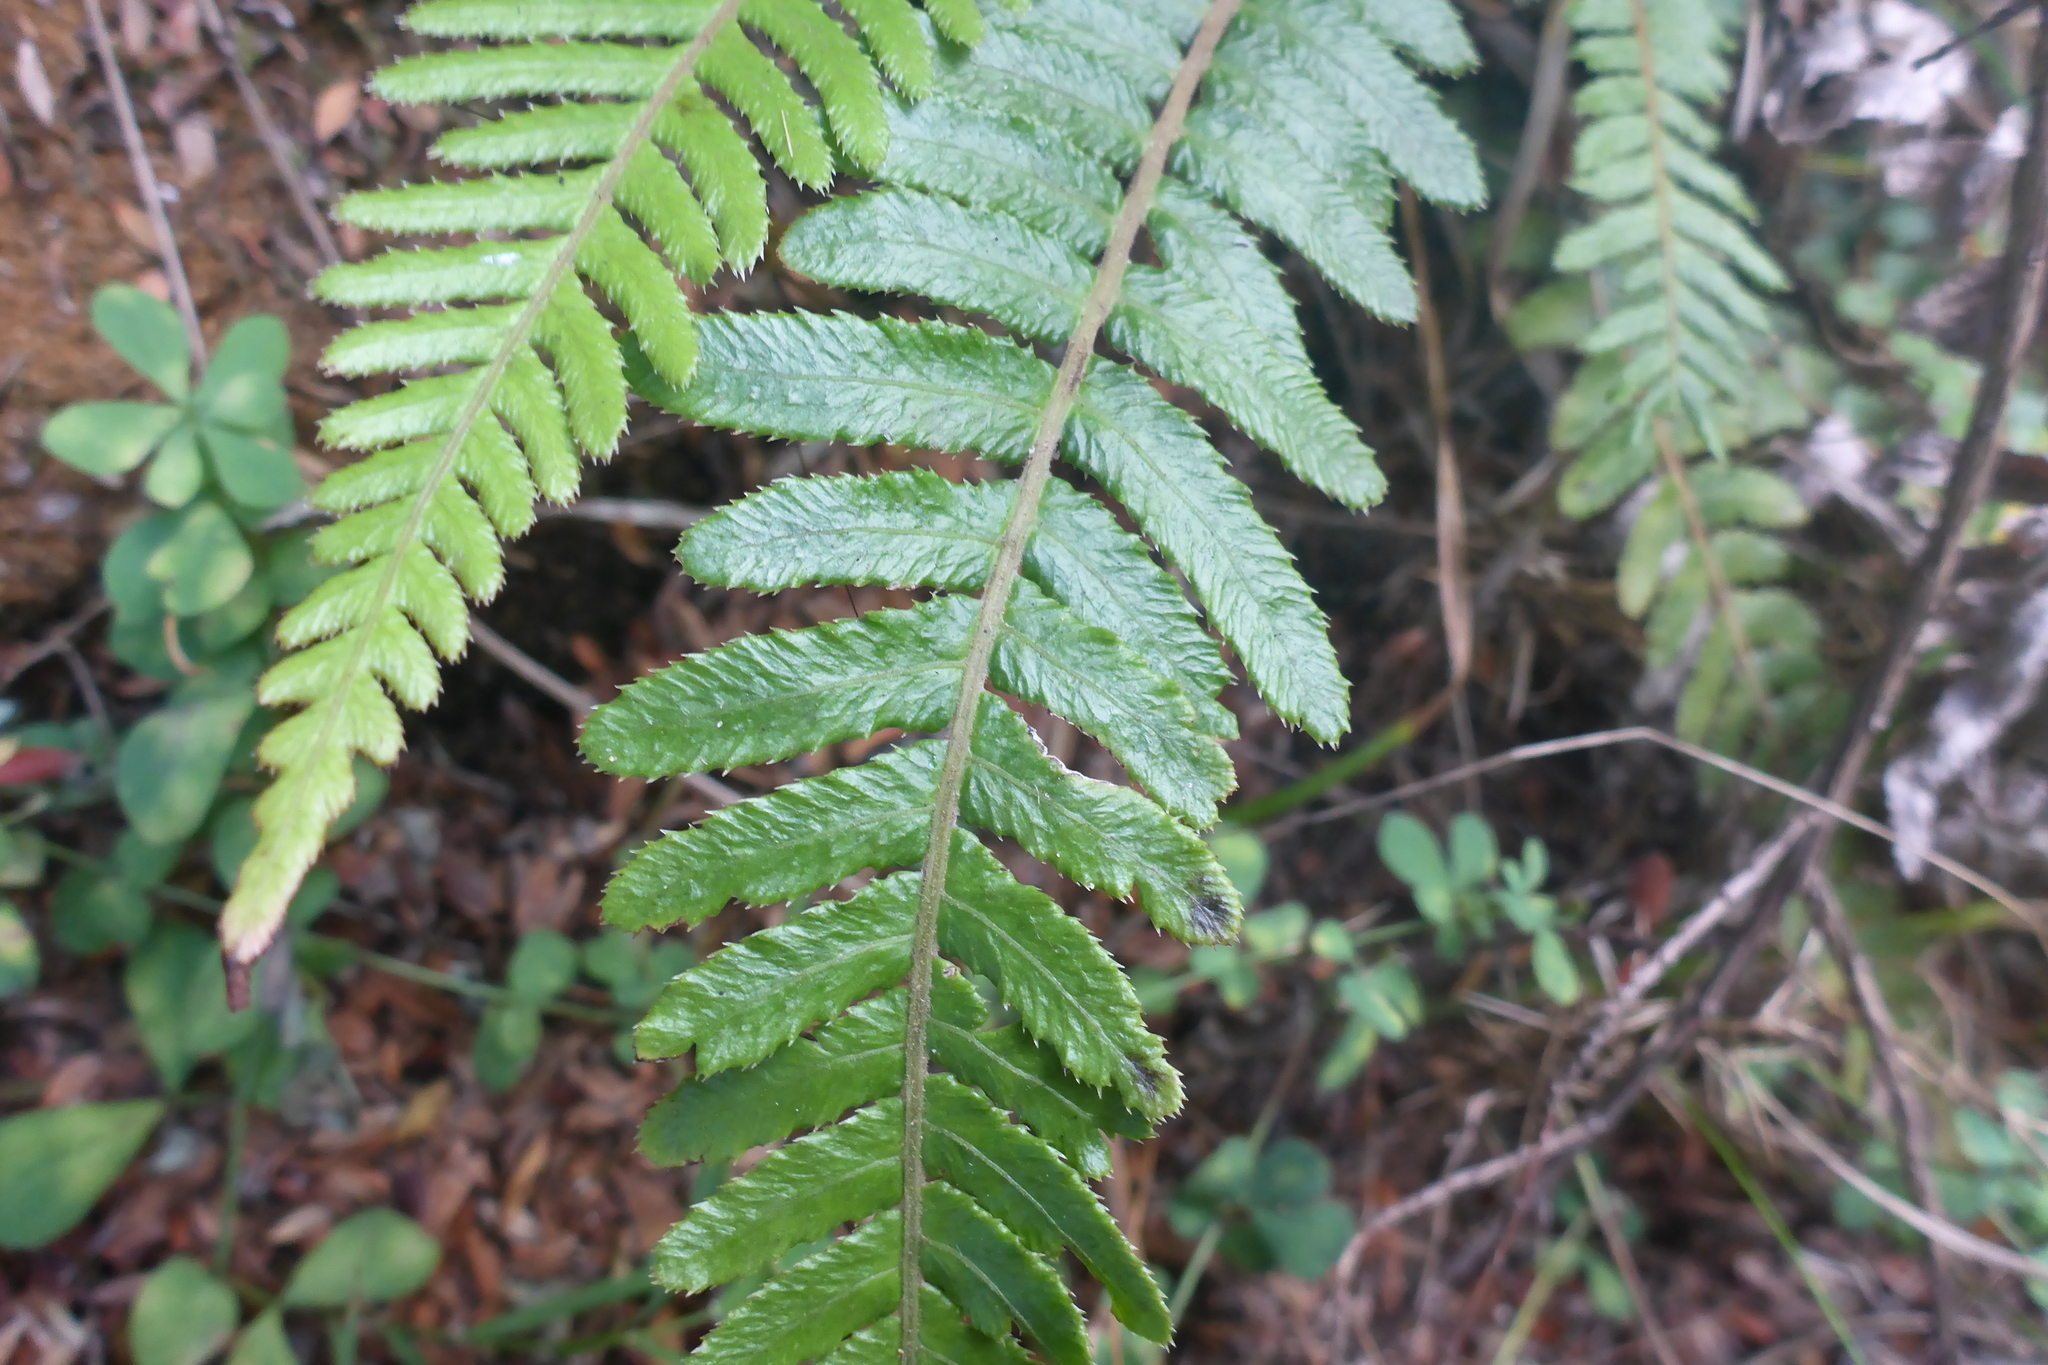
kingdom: Plantae
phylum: Tracheophyta
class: Polypodiopsida
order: Polypodiales
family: Blechnaceae
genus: Doodia
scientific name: Doodia australis
